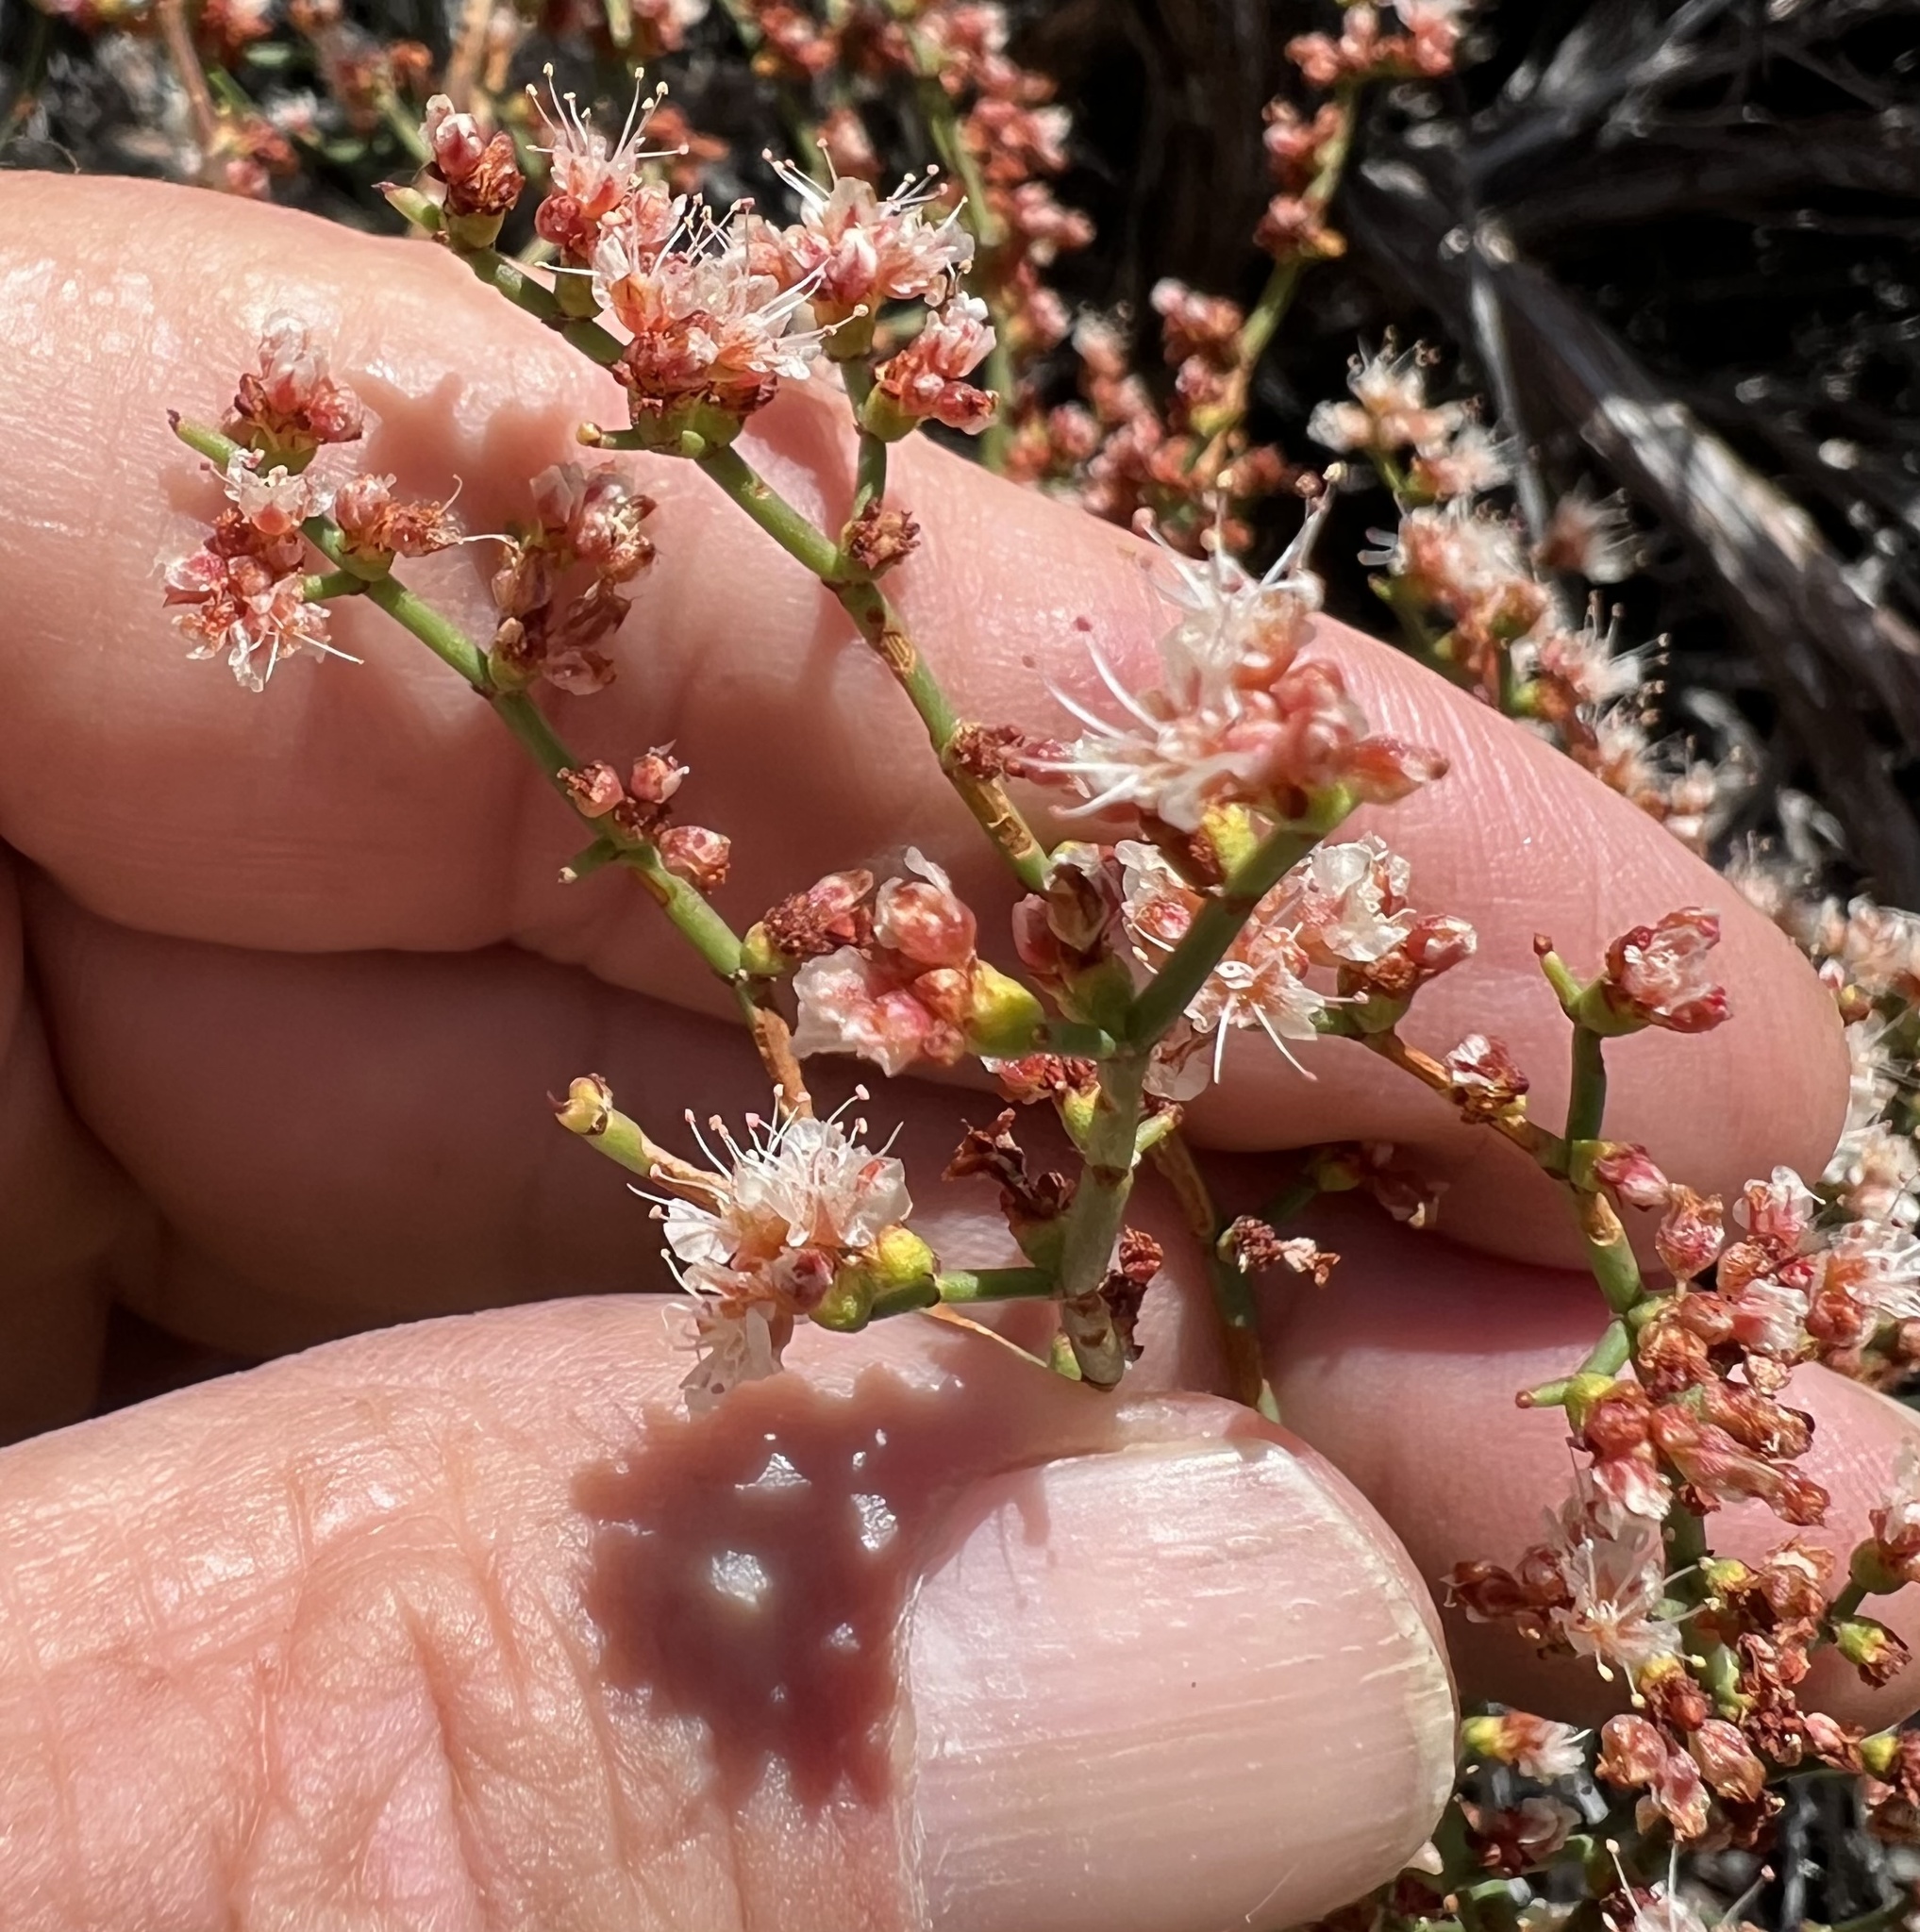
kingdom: Plantae
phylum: Tracheophyta
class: Magnoliopsida
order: Caryophyllales
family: Polygonaceae
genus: Eriogonum
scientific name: Eriogonum heermannii
